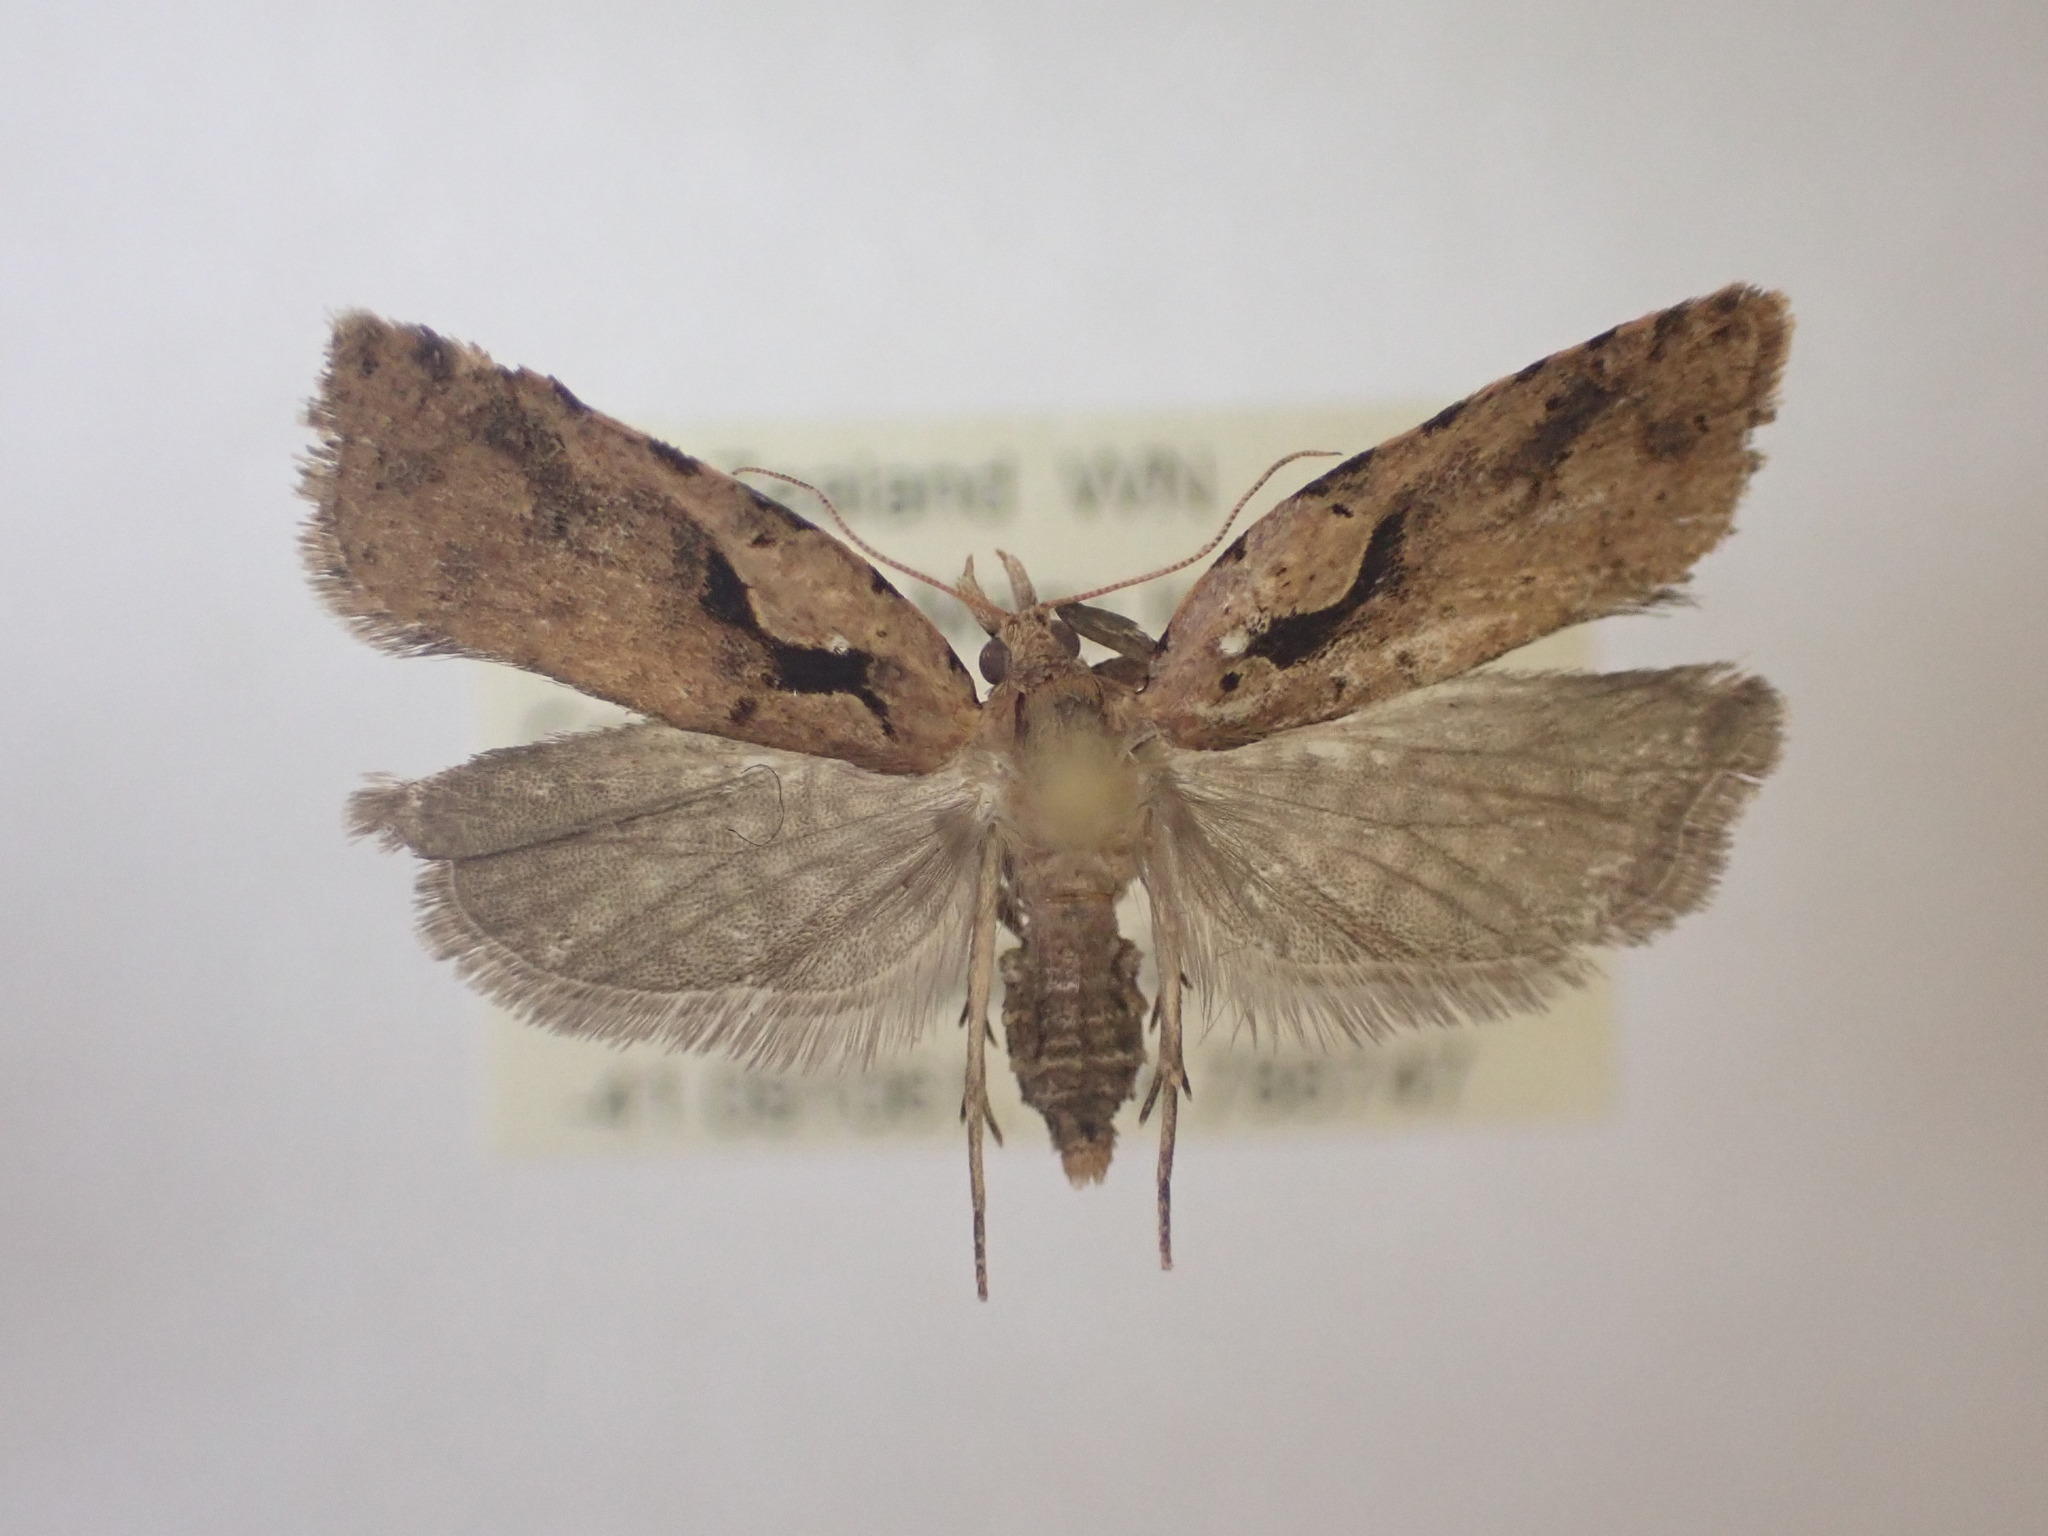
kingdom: Animalia
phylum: Arthropoda
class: Insecta
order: Lepidoptera
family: Tortricidae
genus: Cnephasia
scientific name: Cnephasia jactatana
